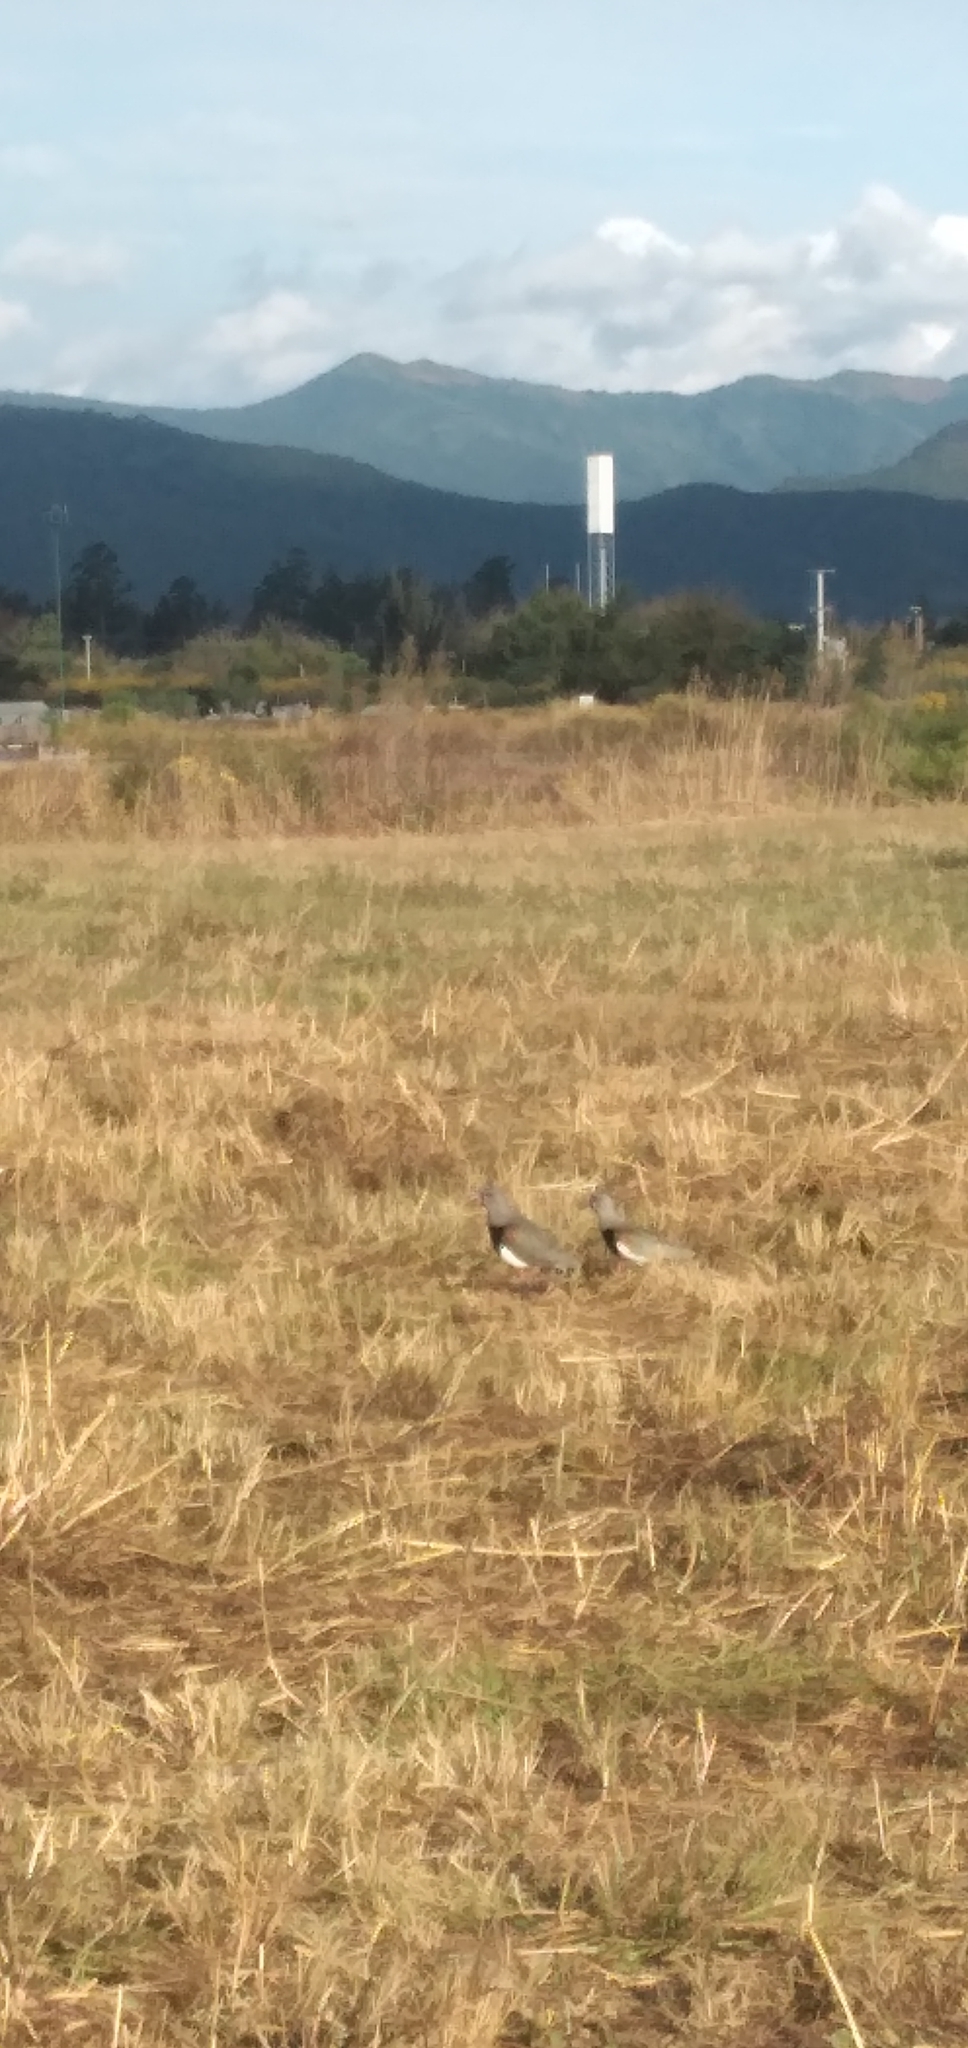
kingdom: Animalia
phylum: Chordata
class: Aves
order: Charadriiformes
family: Charadriidae
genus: Vanellus
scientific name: Vanellus chilensis
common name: Southern lapwing
